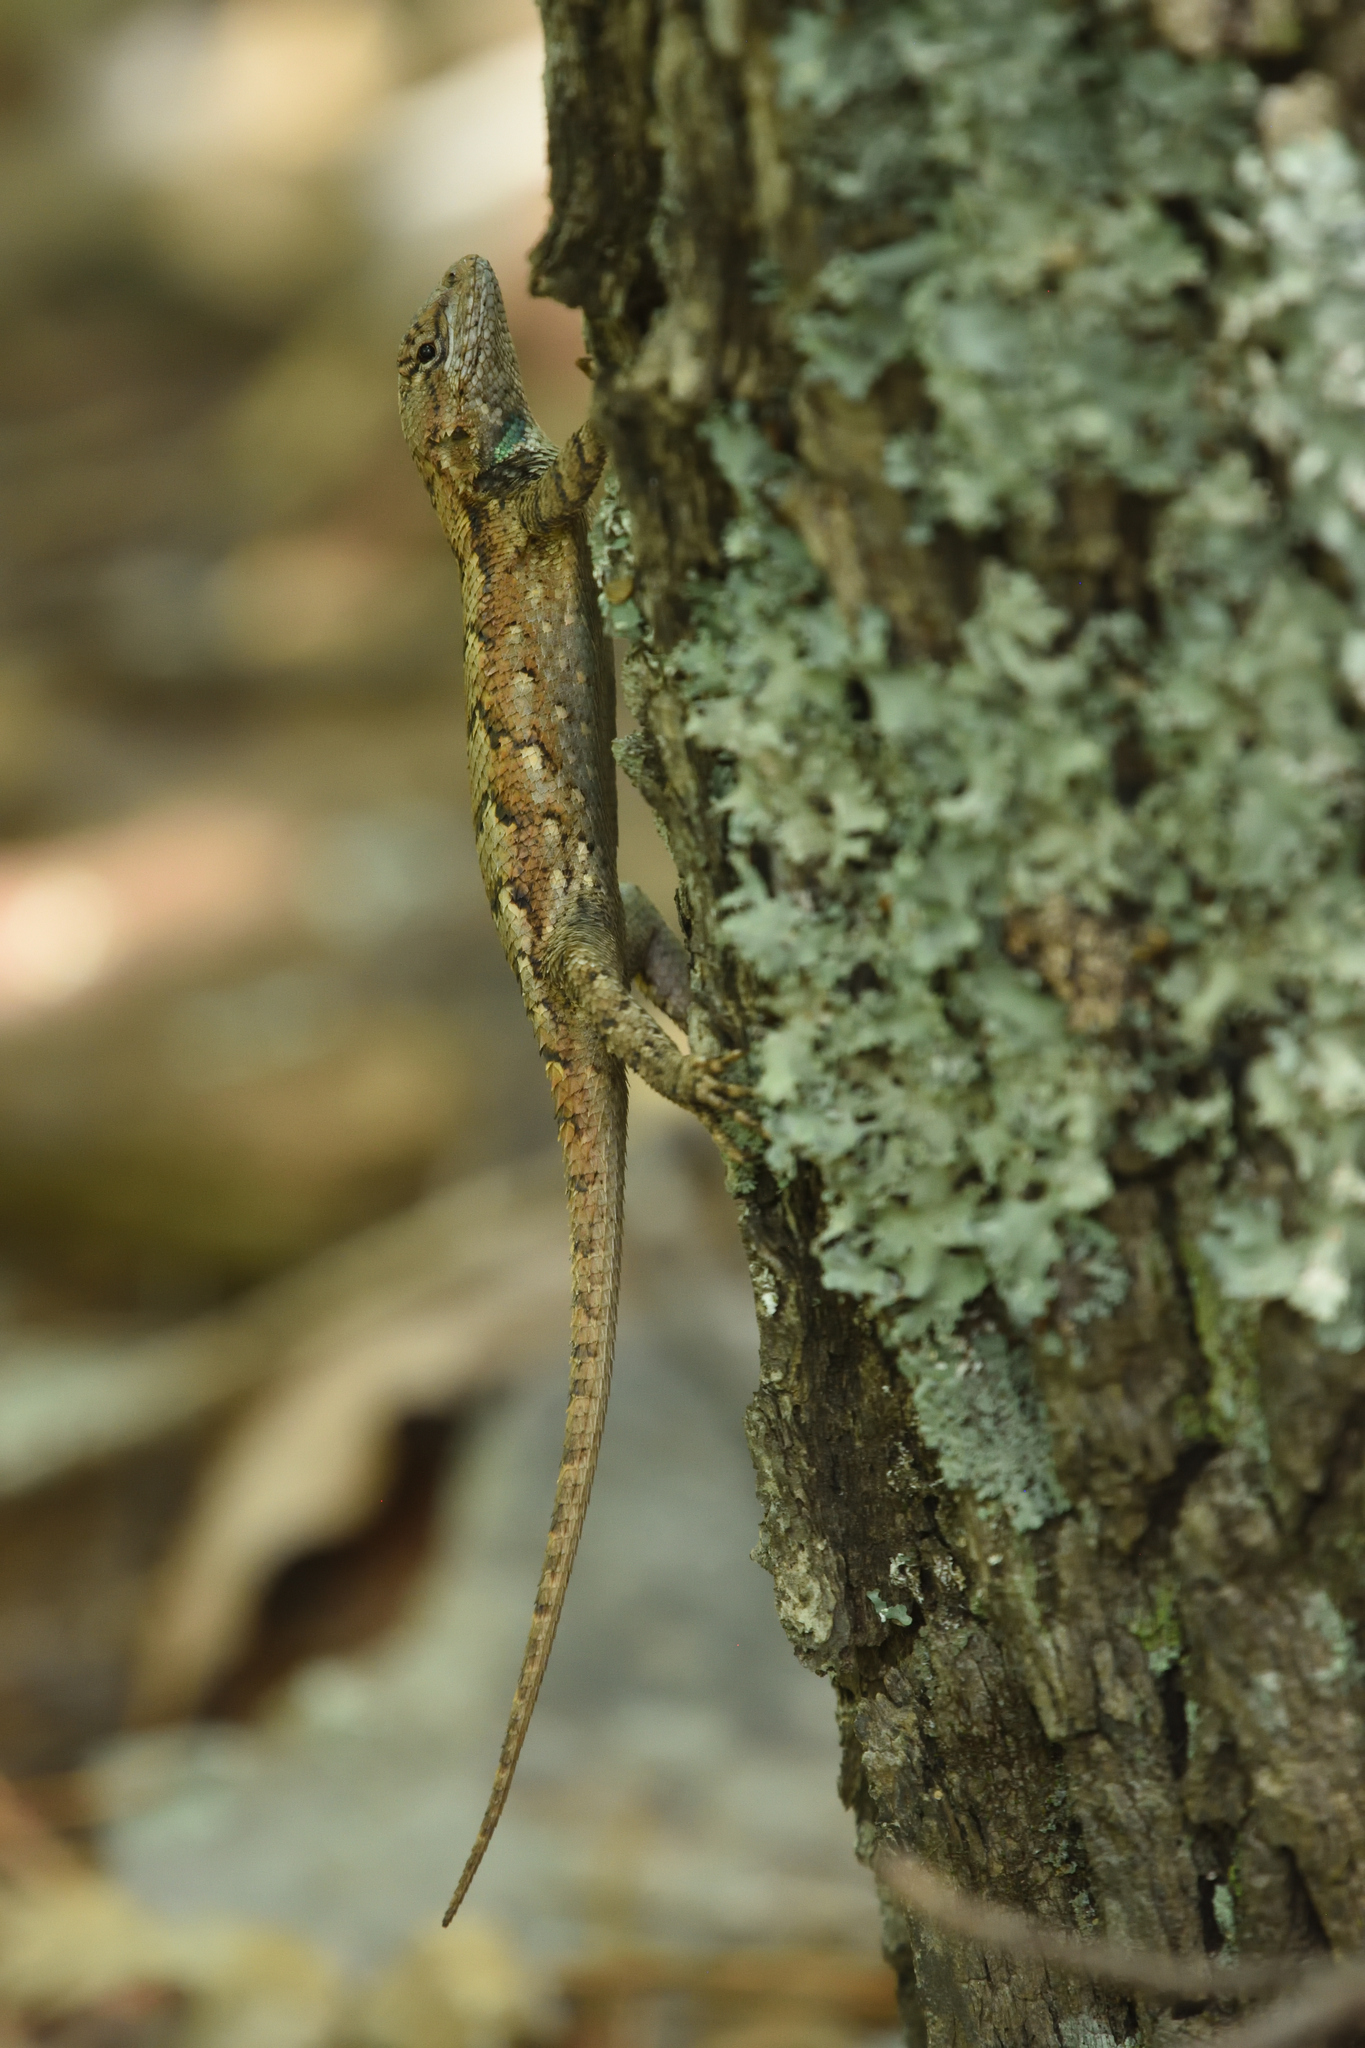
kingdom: Animalia
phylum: Chordata
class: Squamata
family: Phrynosomatidae
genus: Sceloporus
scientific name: Sceloporus undulatus
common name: Eastern fence lizard
